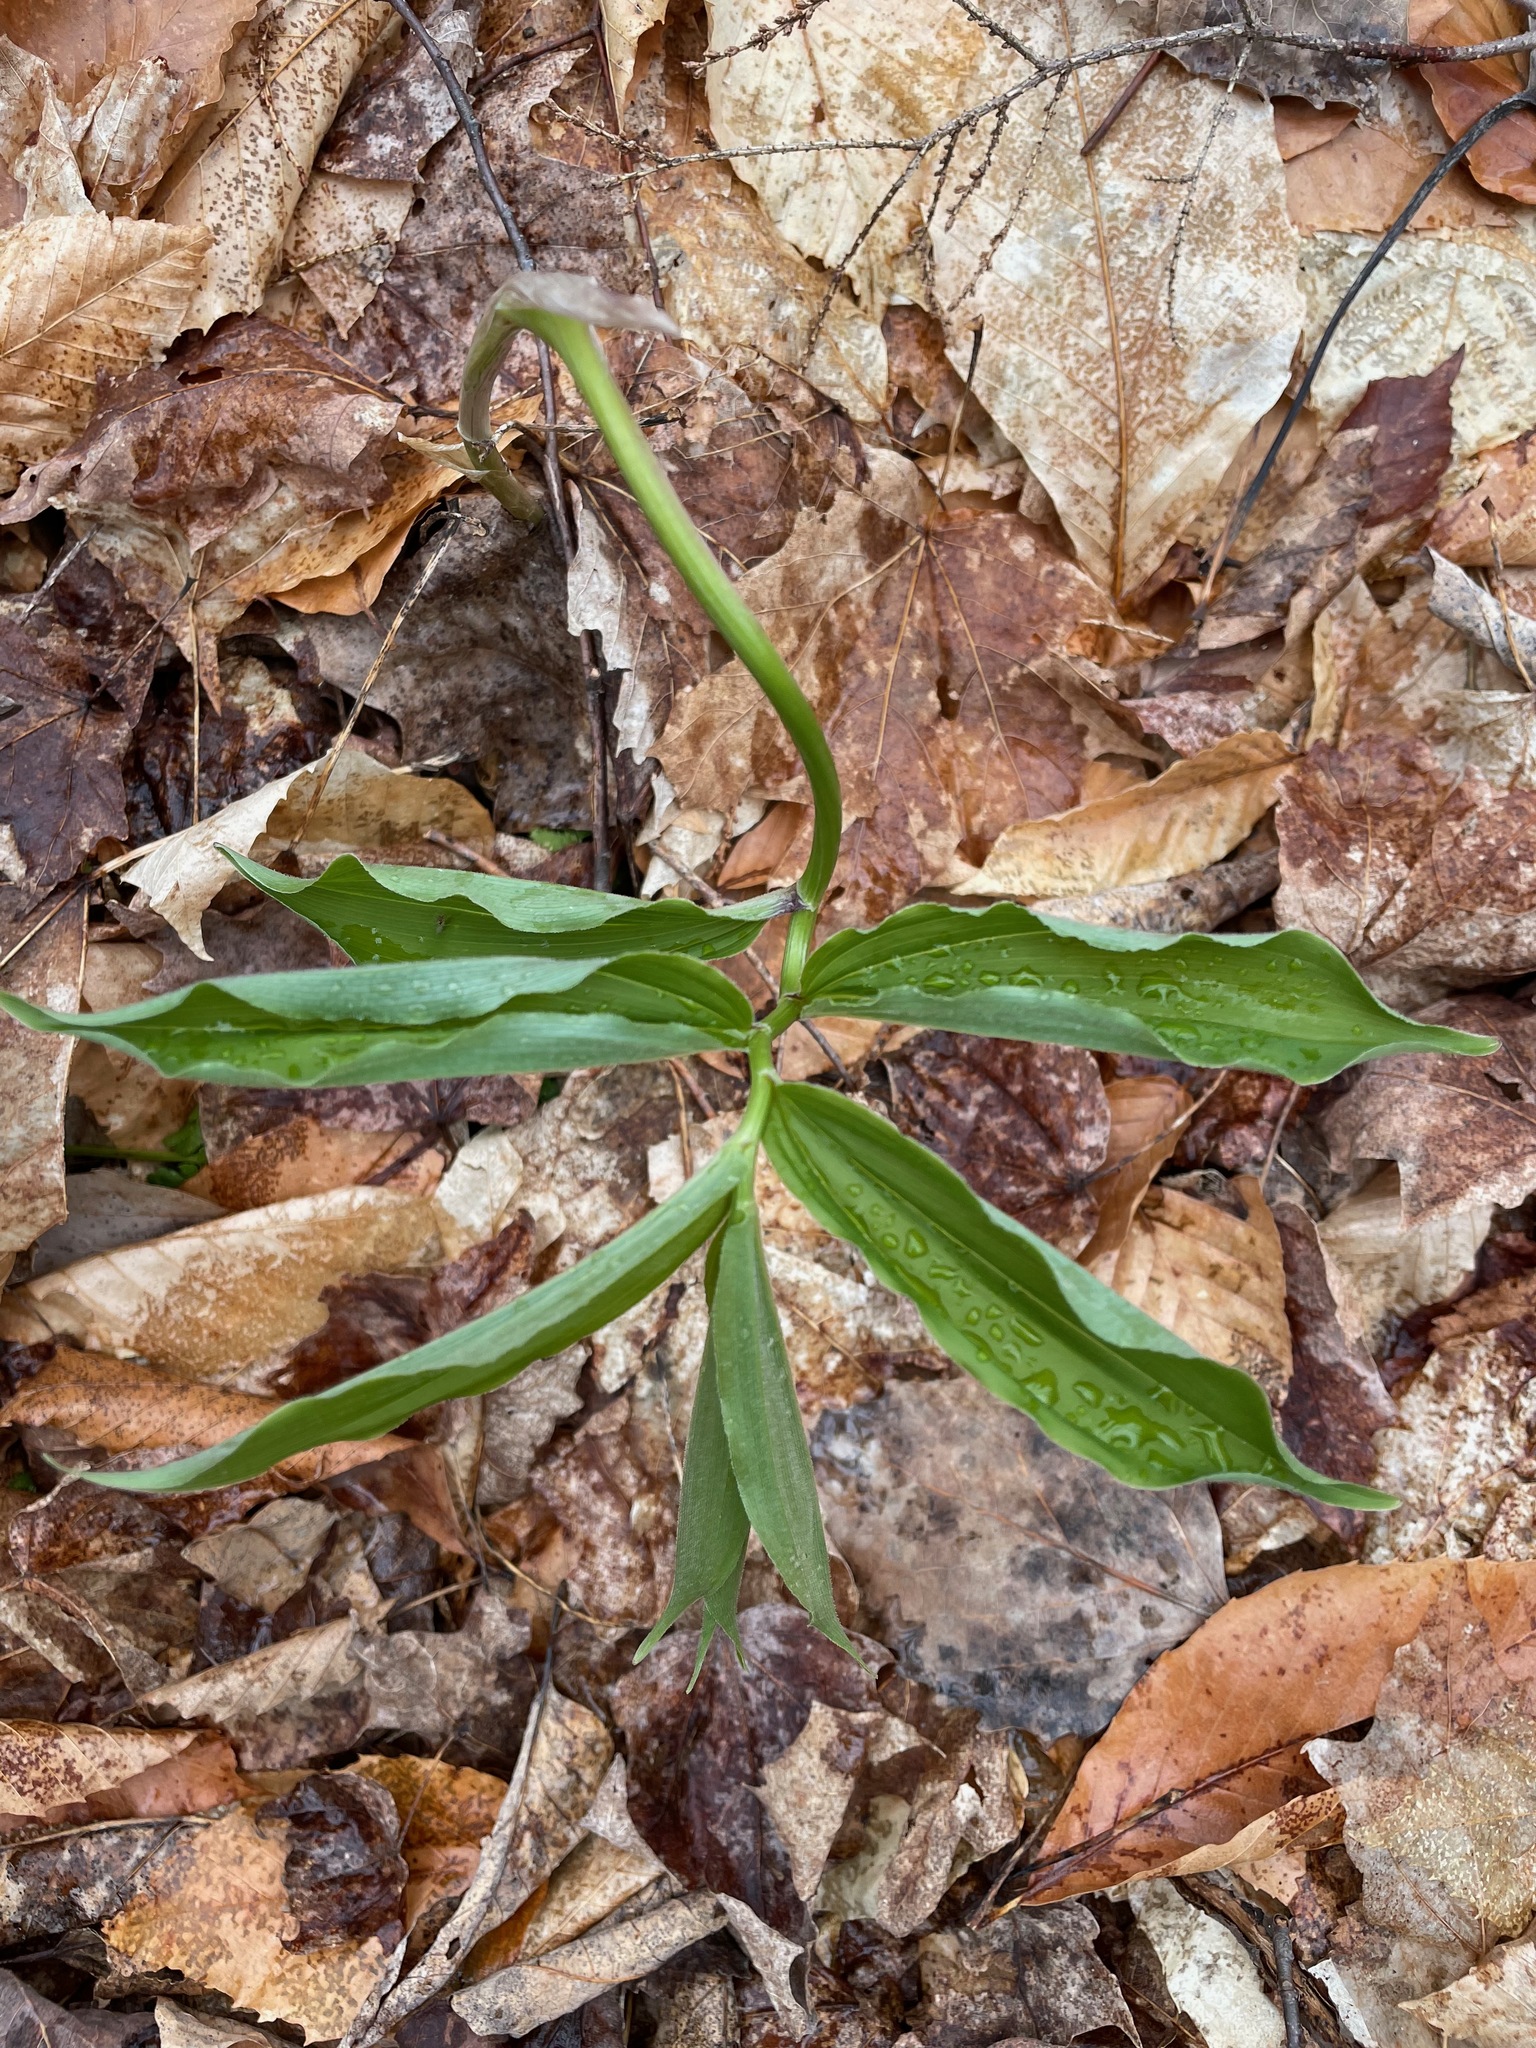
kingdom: Plantae
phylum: Tracheophyta
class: Liliopsida
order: Asparagales
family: Asparagaceae
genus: Maianthemum
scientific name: Maianthemum racemosum
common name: False spikenard
